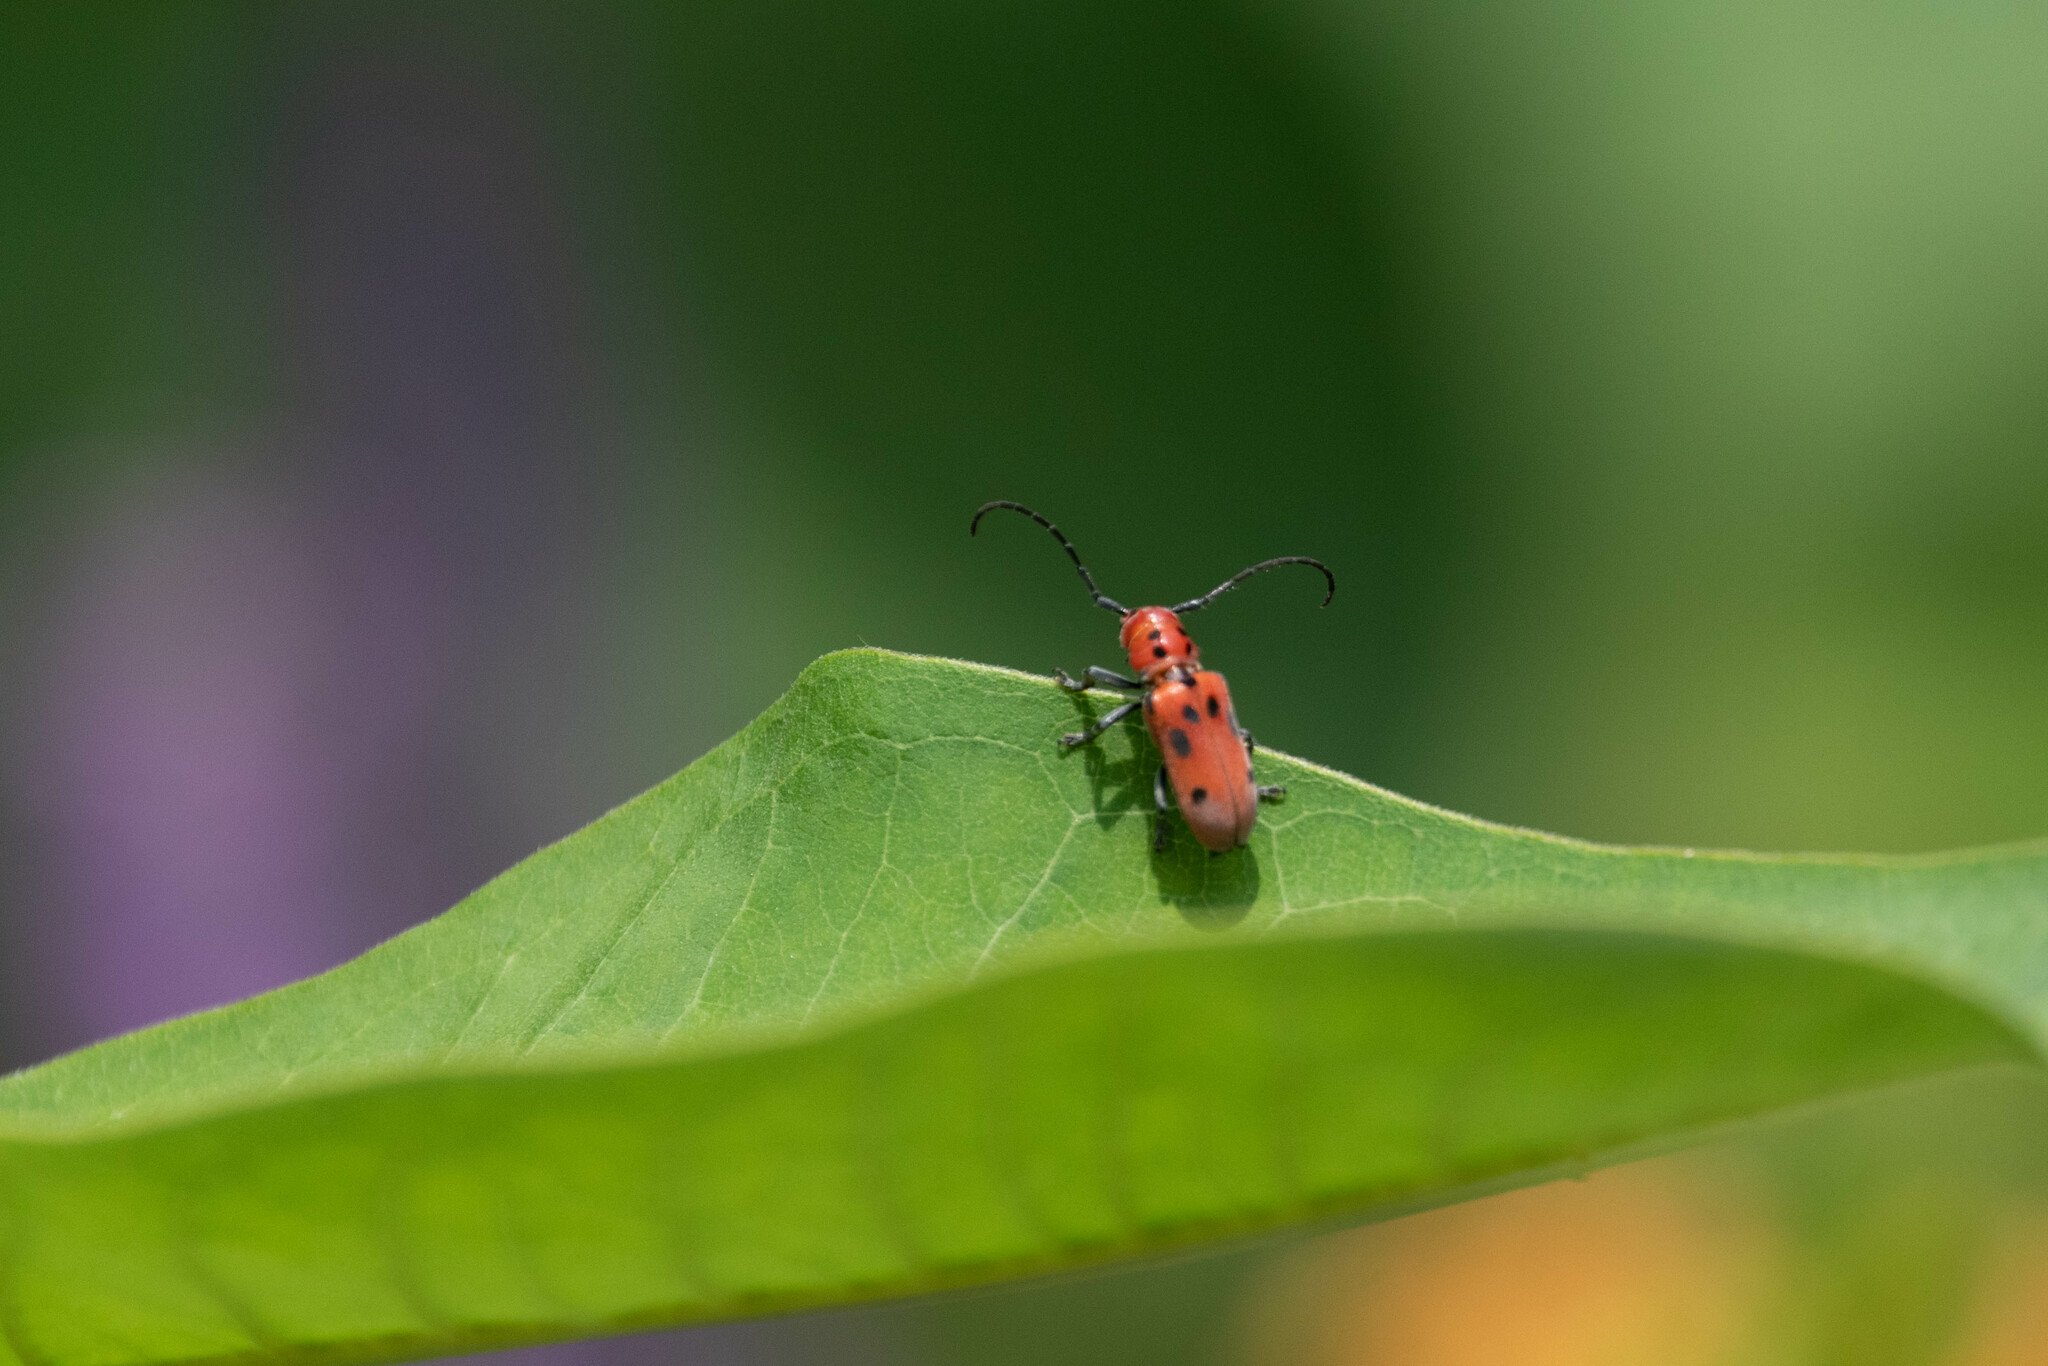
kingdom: Animalia
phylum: Arthropoda
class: Insecta
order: Coleoptera
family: Cerambycidae
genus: Tetraopes
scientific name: Tetraopes tetrophthalmus
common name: Red milkweed beetle
